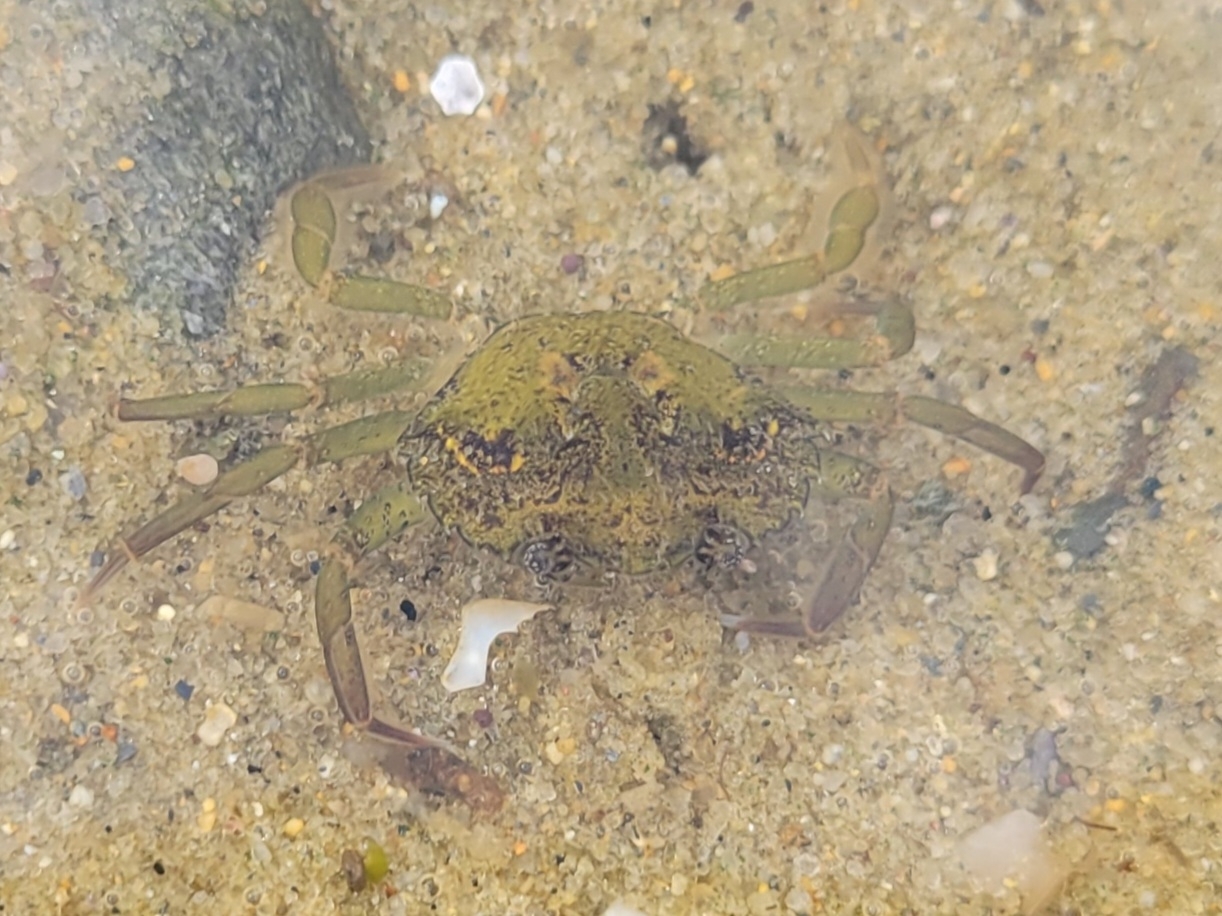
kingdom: Animalia
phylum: Arthropoda
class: Malacostraca
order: Decapoda
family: Carcinidae
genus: Carcinus
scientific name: Carcinus maenas
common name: European green crab
